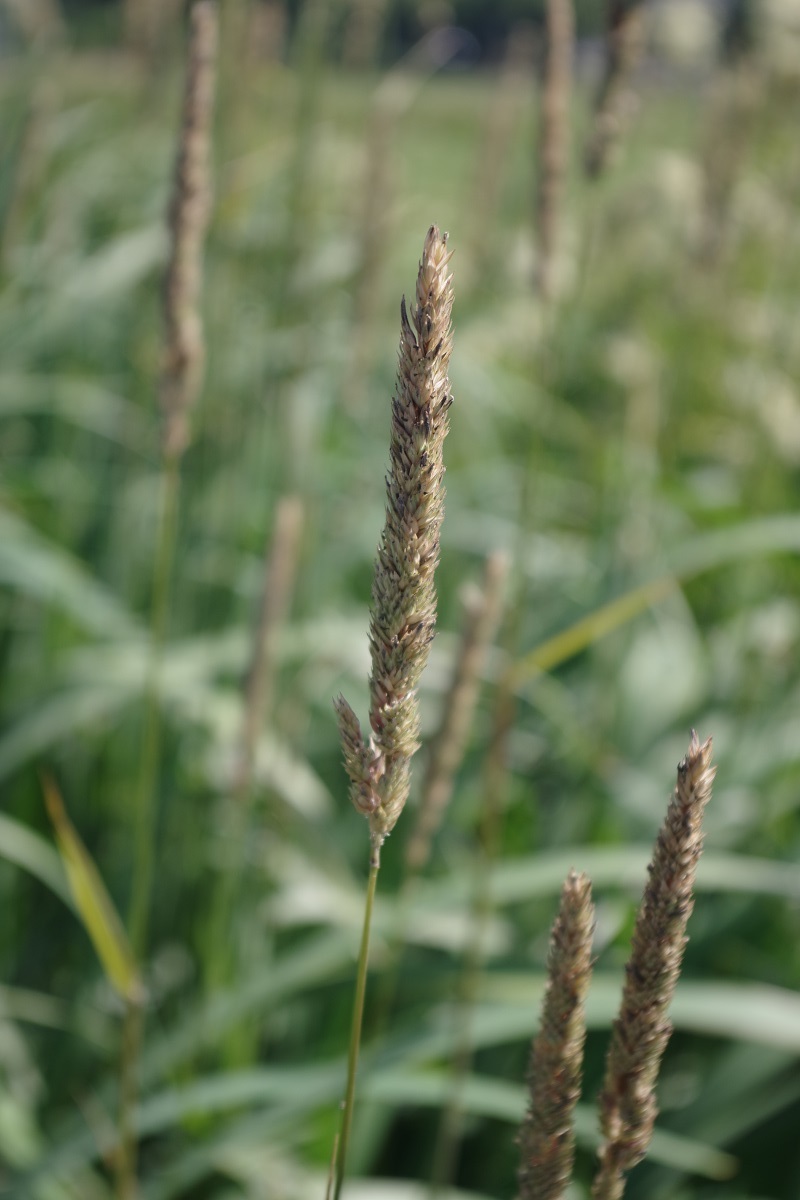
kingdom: Plantae
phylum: Tracheophyta
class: Liliopsida
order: Poales
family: Poaceae
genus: Phalaris
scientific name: Phalaris arundinacea
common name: Reed canary-grass
